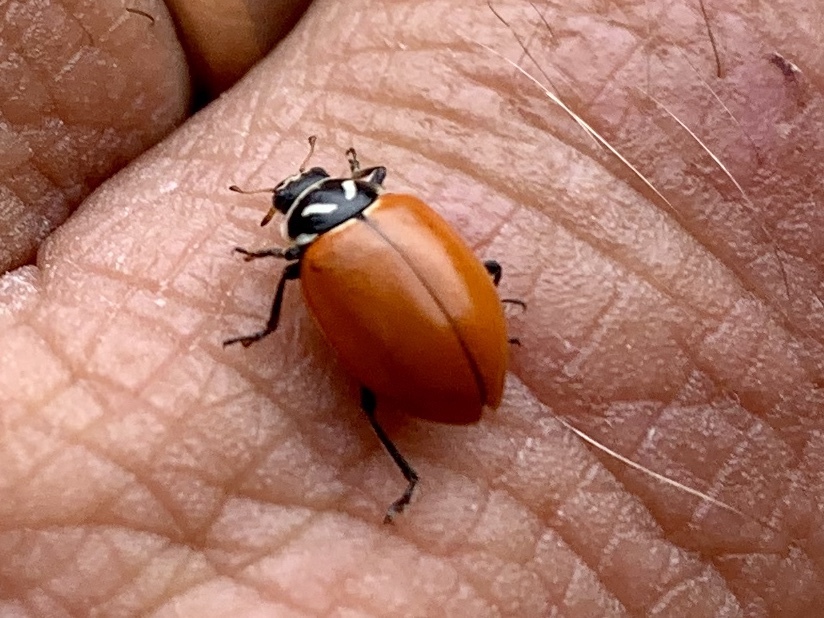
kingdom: Animalia
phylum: Arthropoda
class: Insecta
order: Coleoptera
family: Coccinellidae
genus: Hippodamia
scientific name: Hippodamia convergens
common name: Convergent lady beetle
